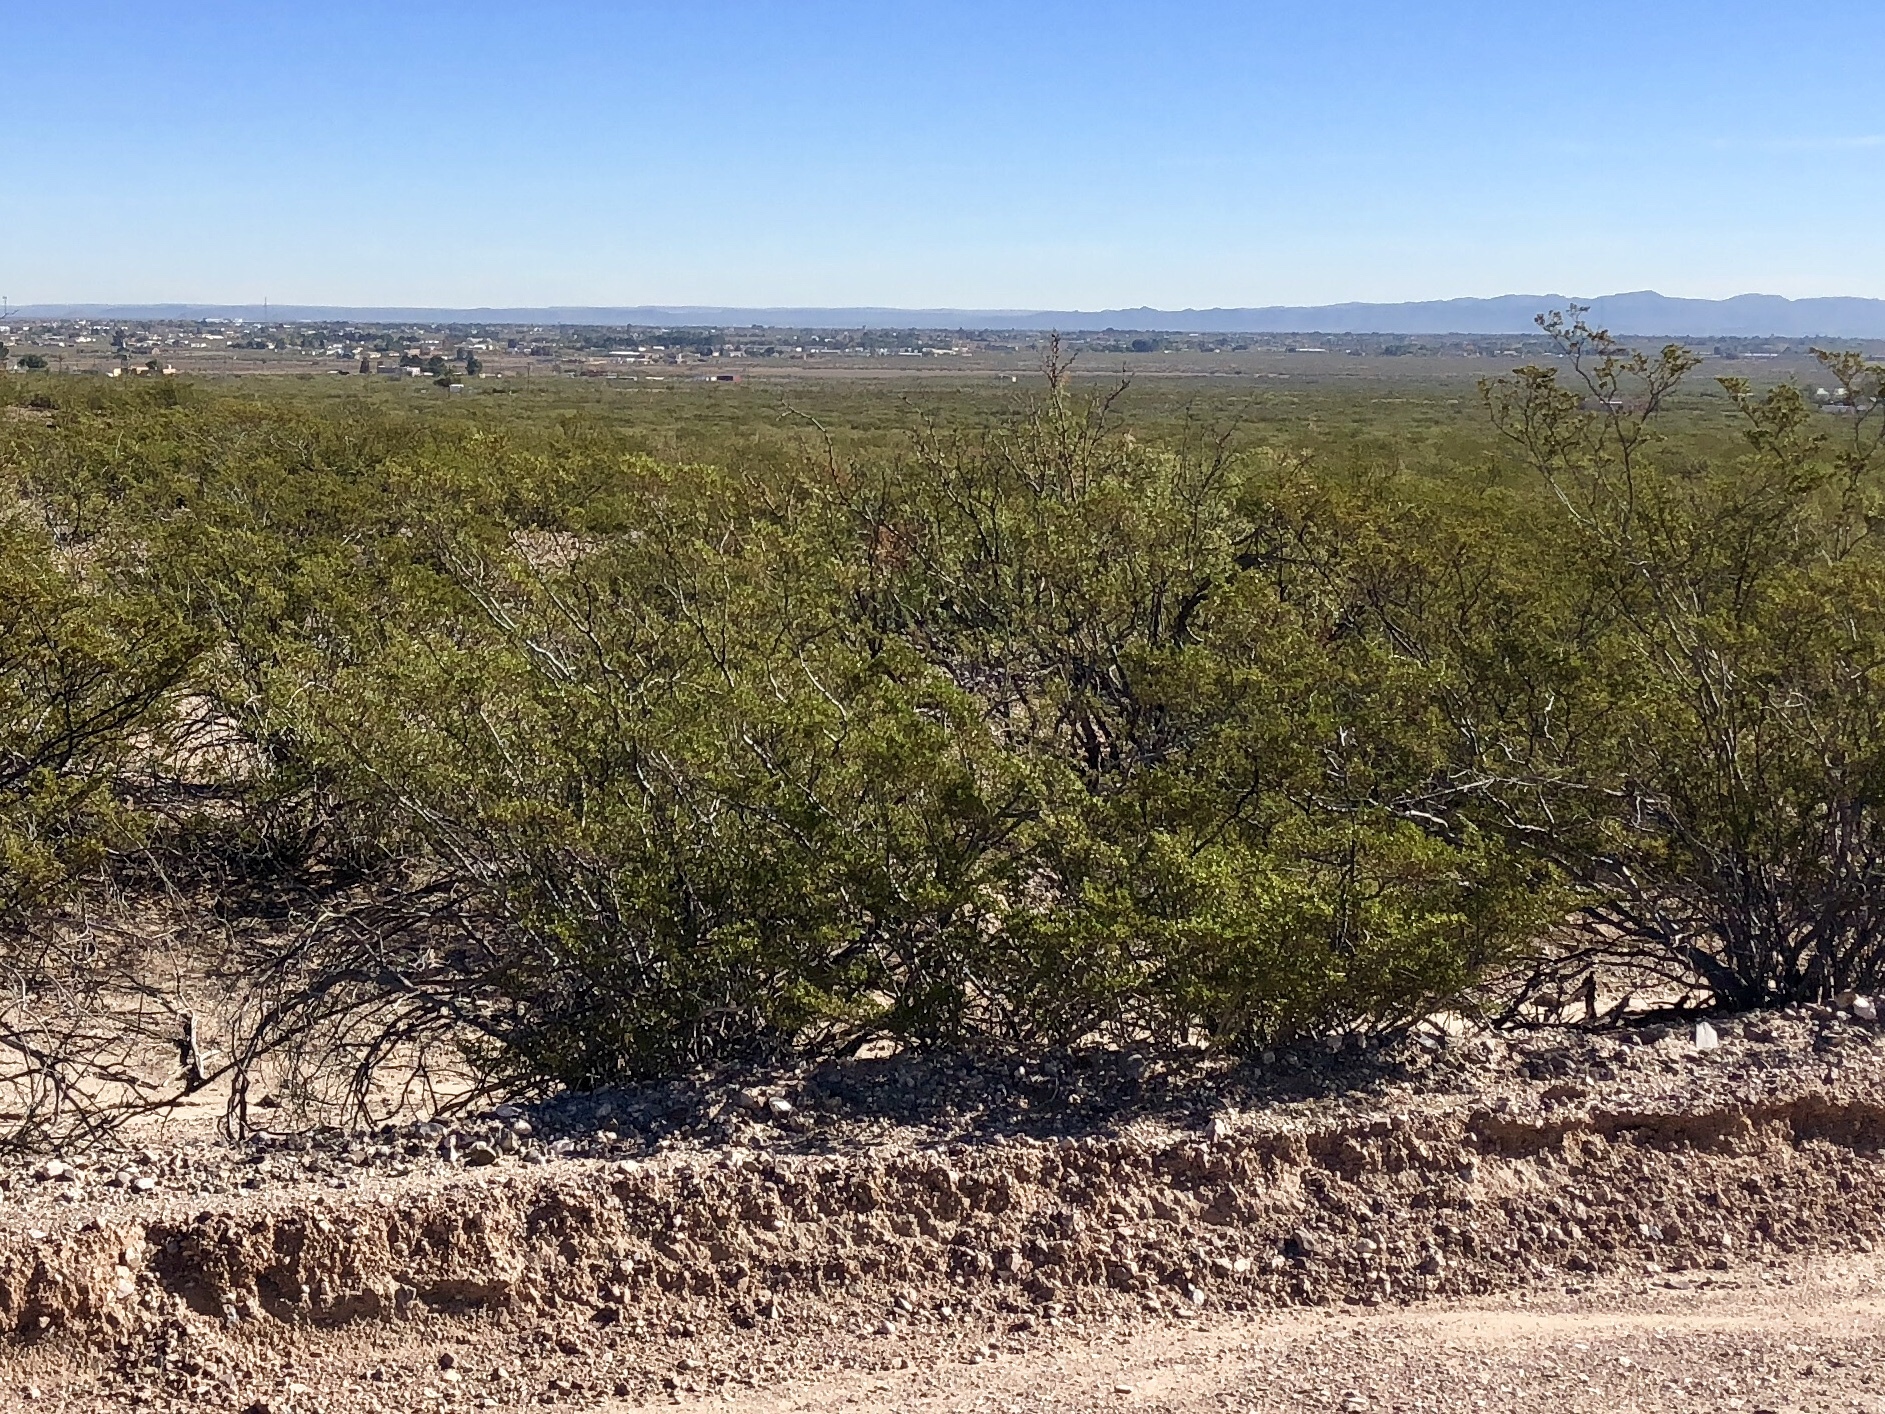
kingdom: Plantae
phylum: Tracheophyta
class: Magnoliopsida
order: Zygophyllales
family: Zygophyllaceae
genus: Larrea
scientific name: Larrea tridentata
